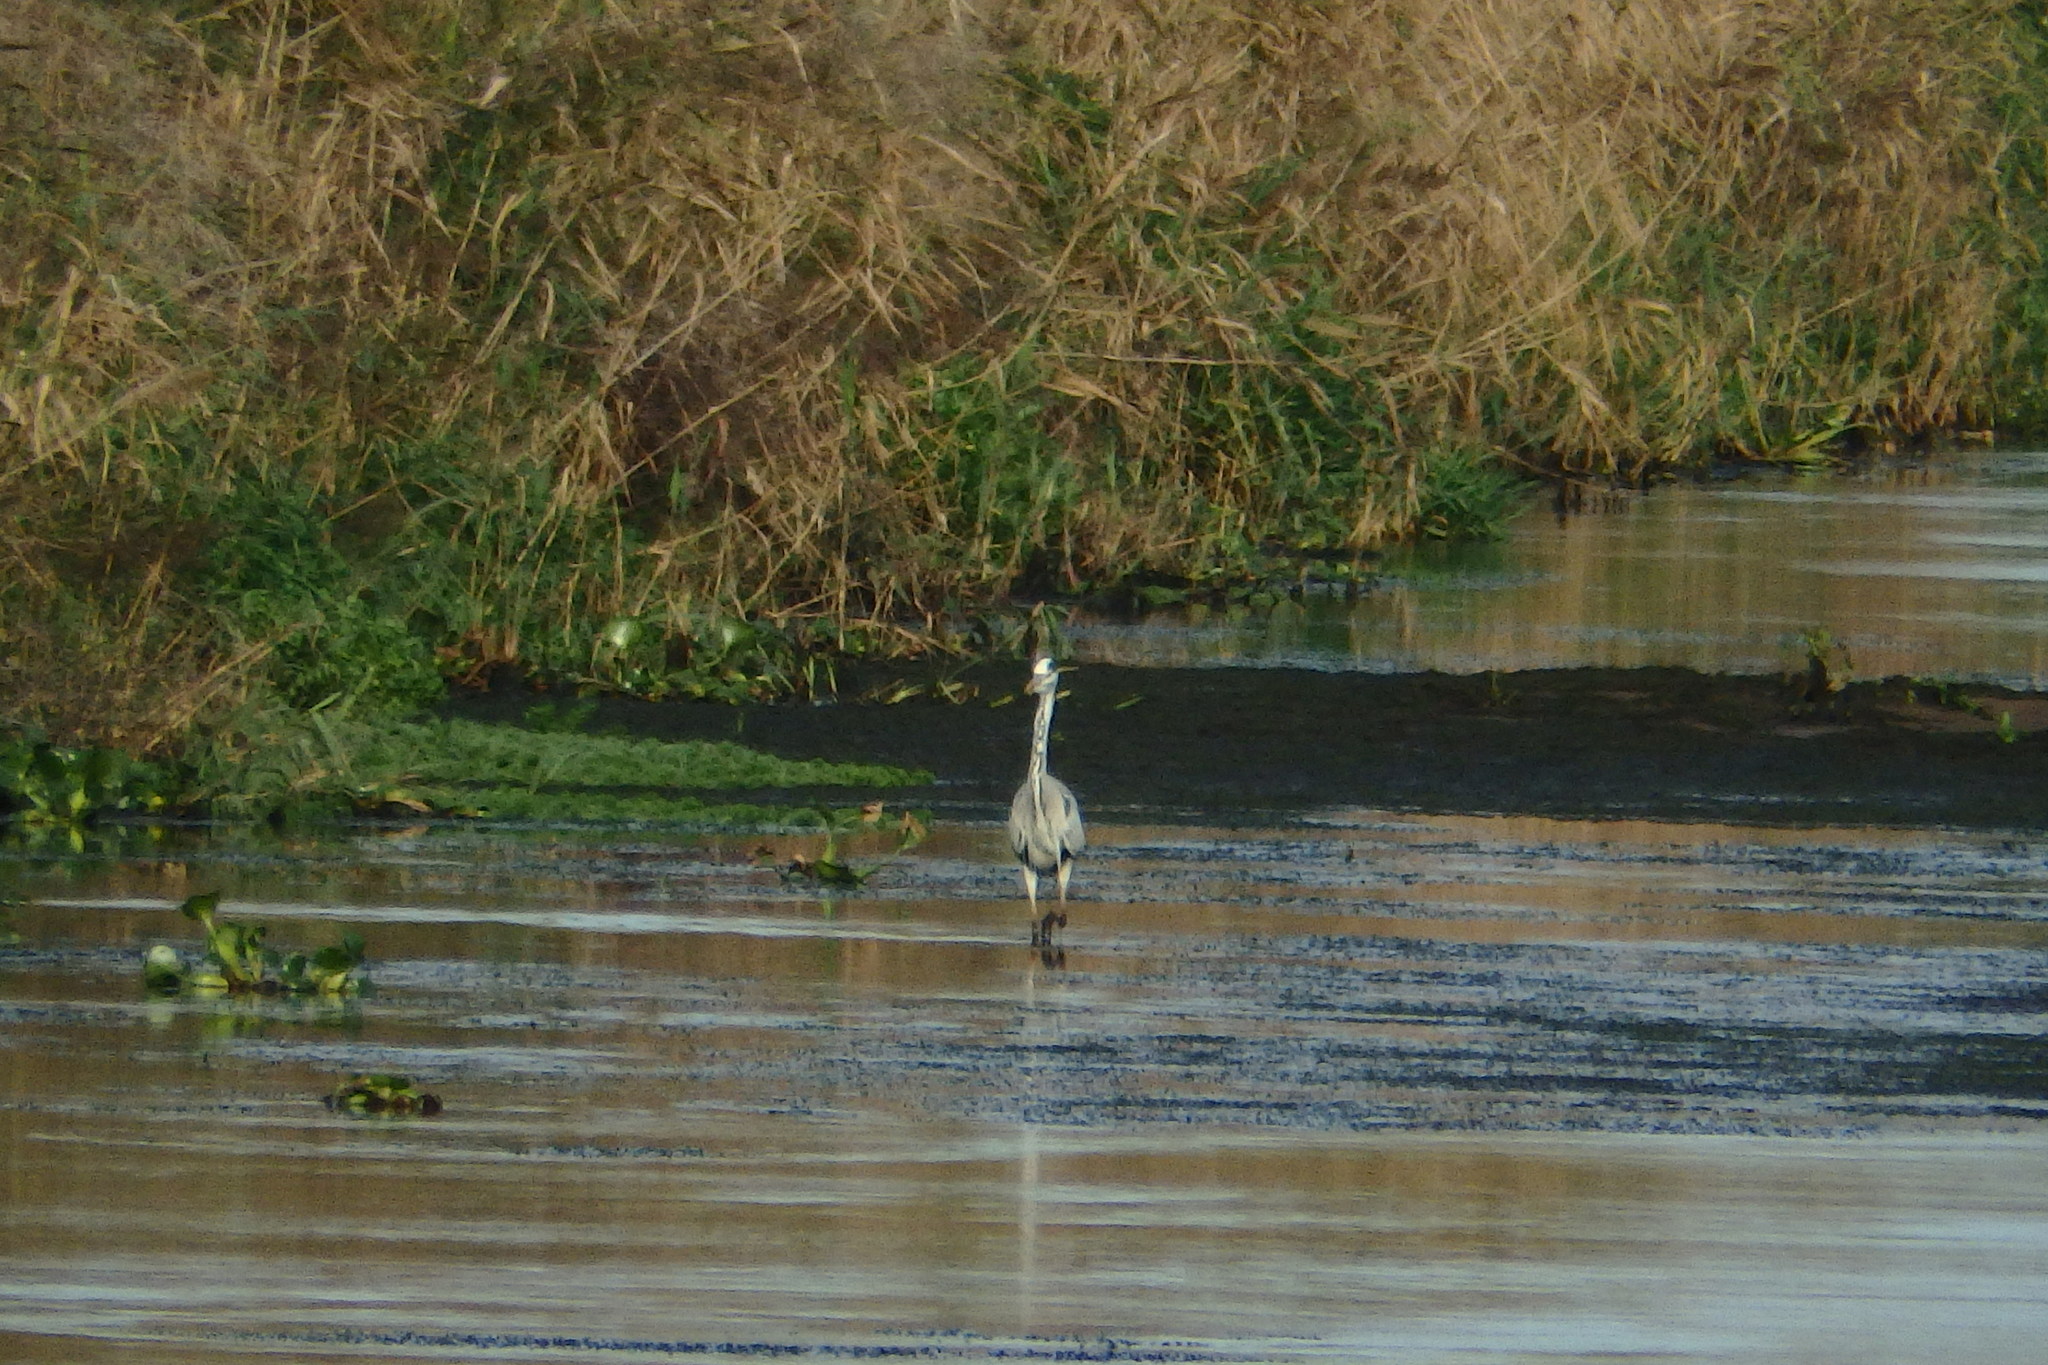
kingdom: Animalia
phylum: Chordata
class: Aves
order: Pelecaniformes
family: Ardeidae
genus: Ardea
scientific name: Ardea cinerea
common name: Grey heron
